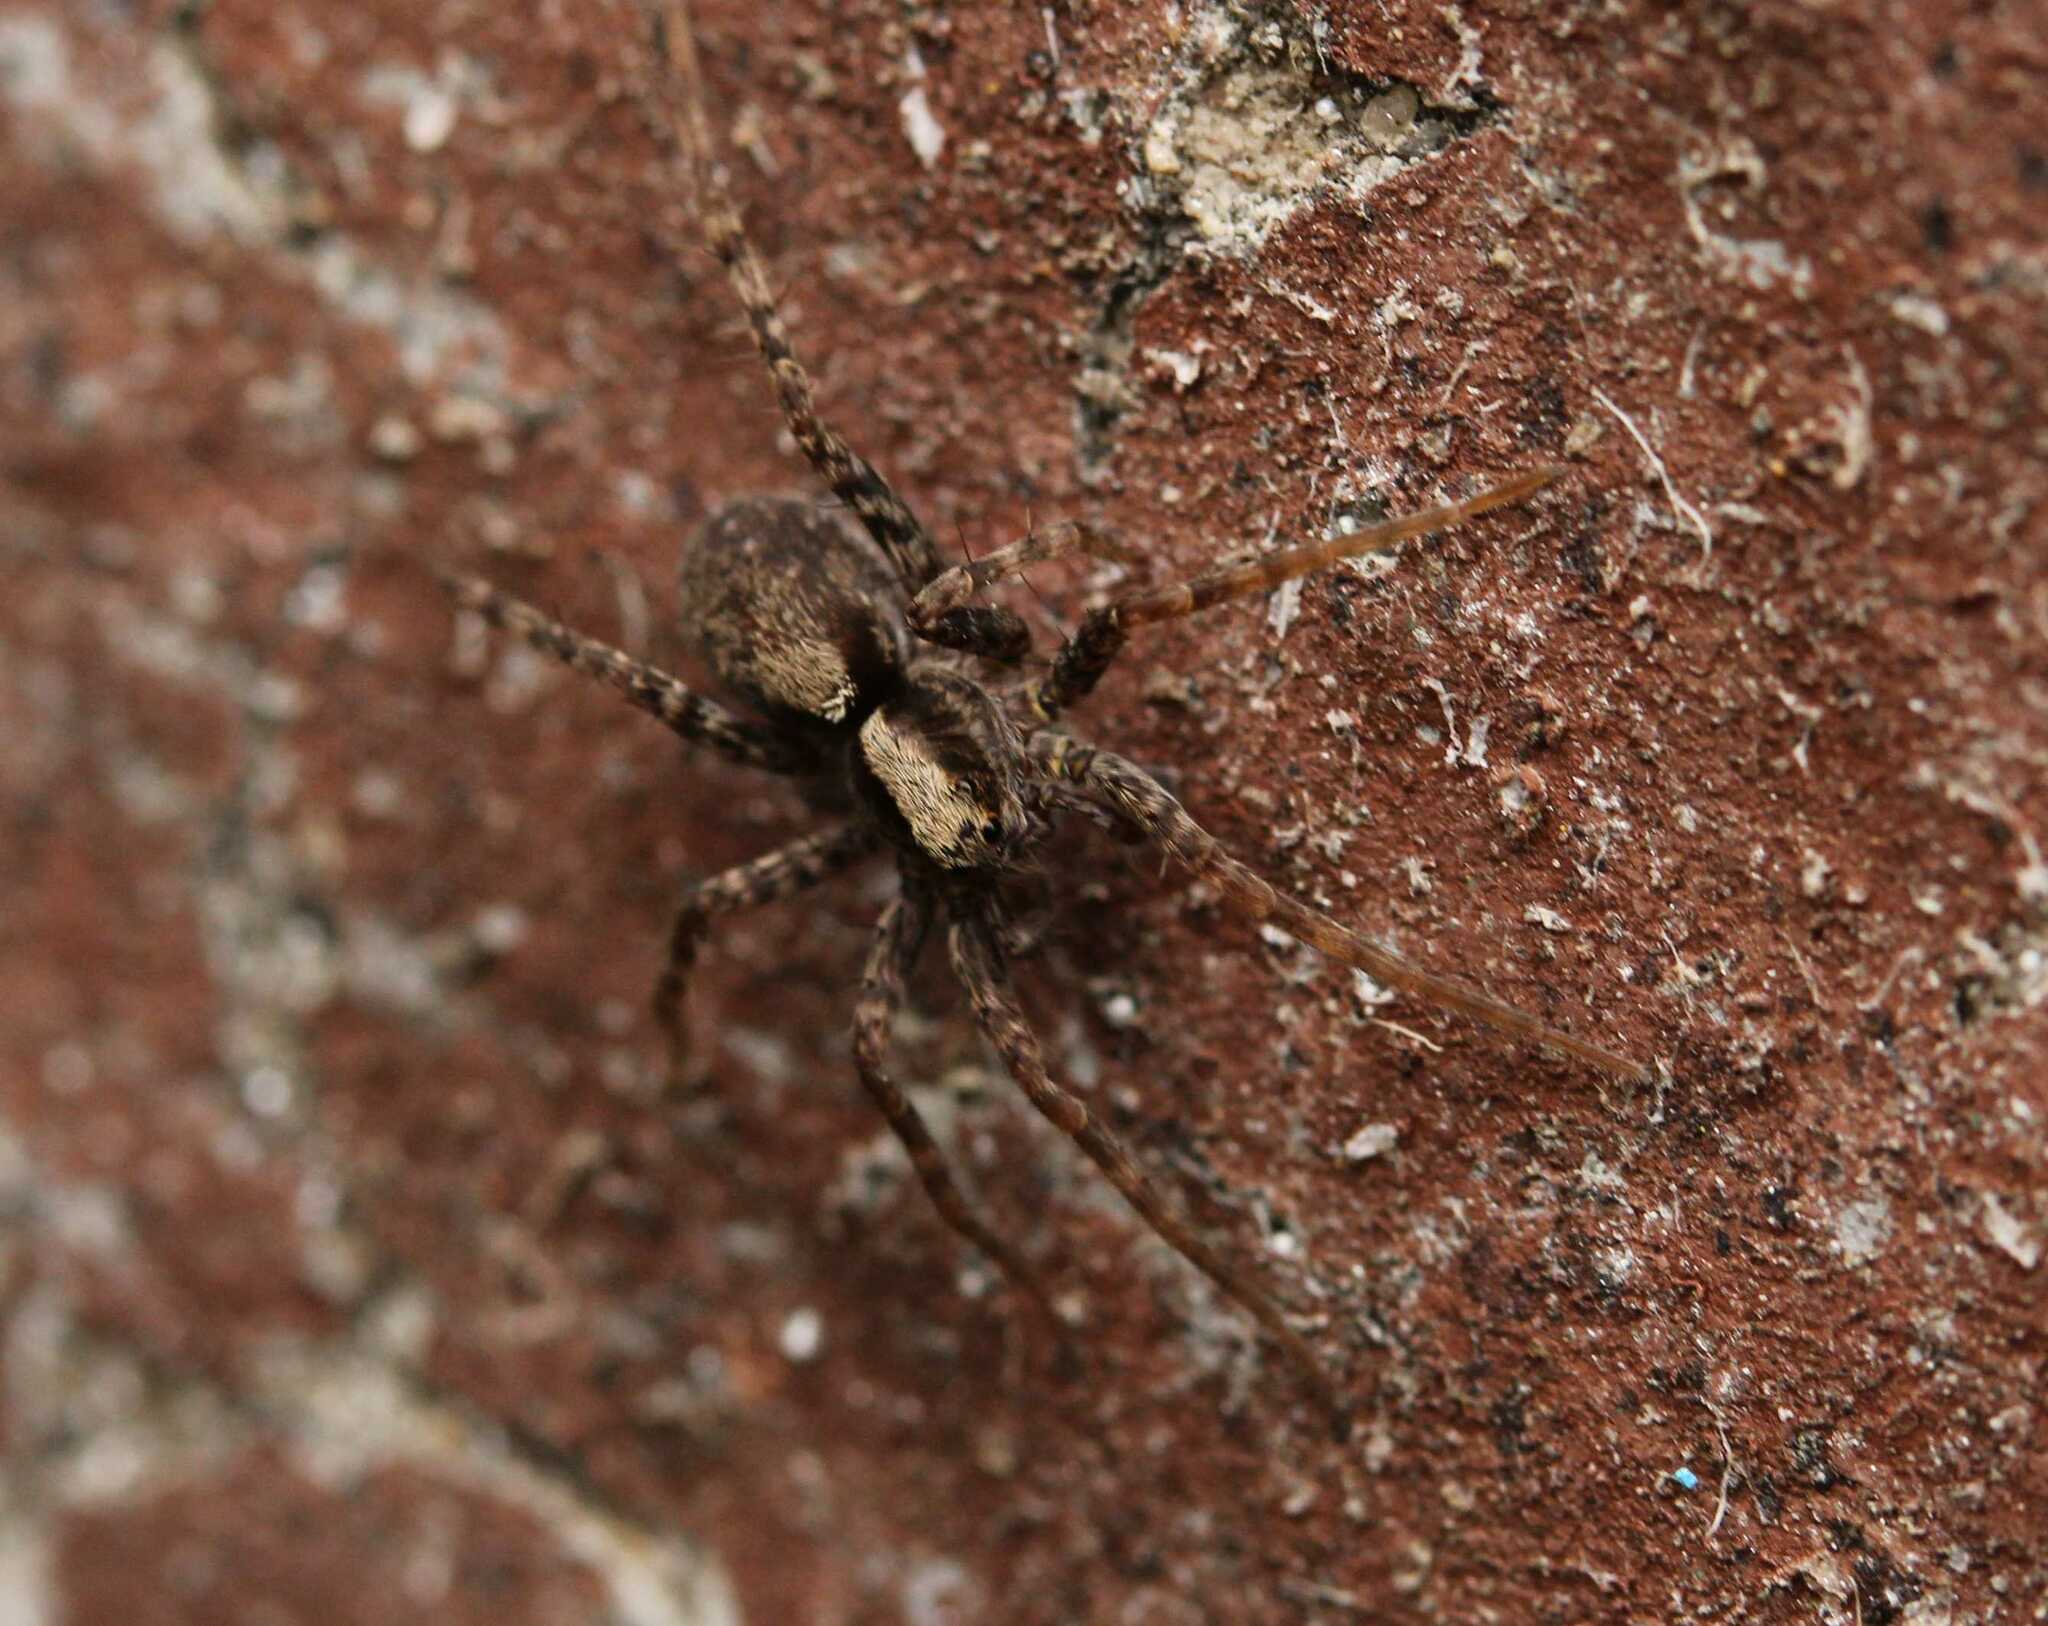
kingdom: Animalia
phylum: Arthropoda
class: Arachnida
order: Araneae
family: Lycosidae
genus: Pardosa
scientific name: Pardosa
